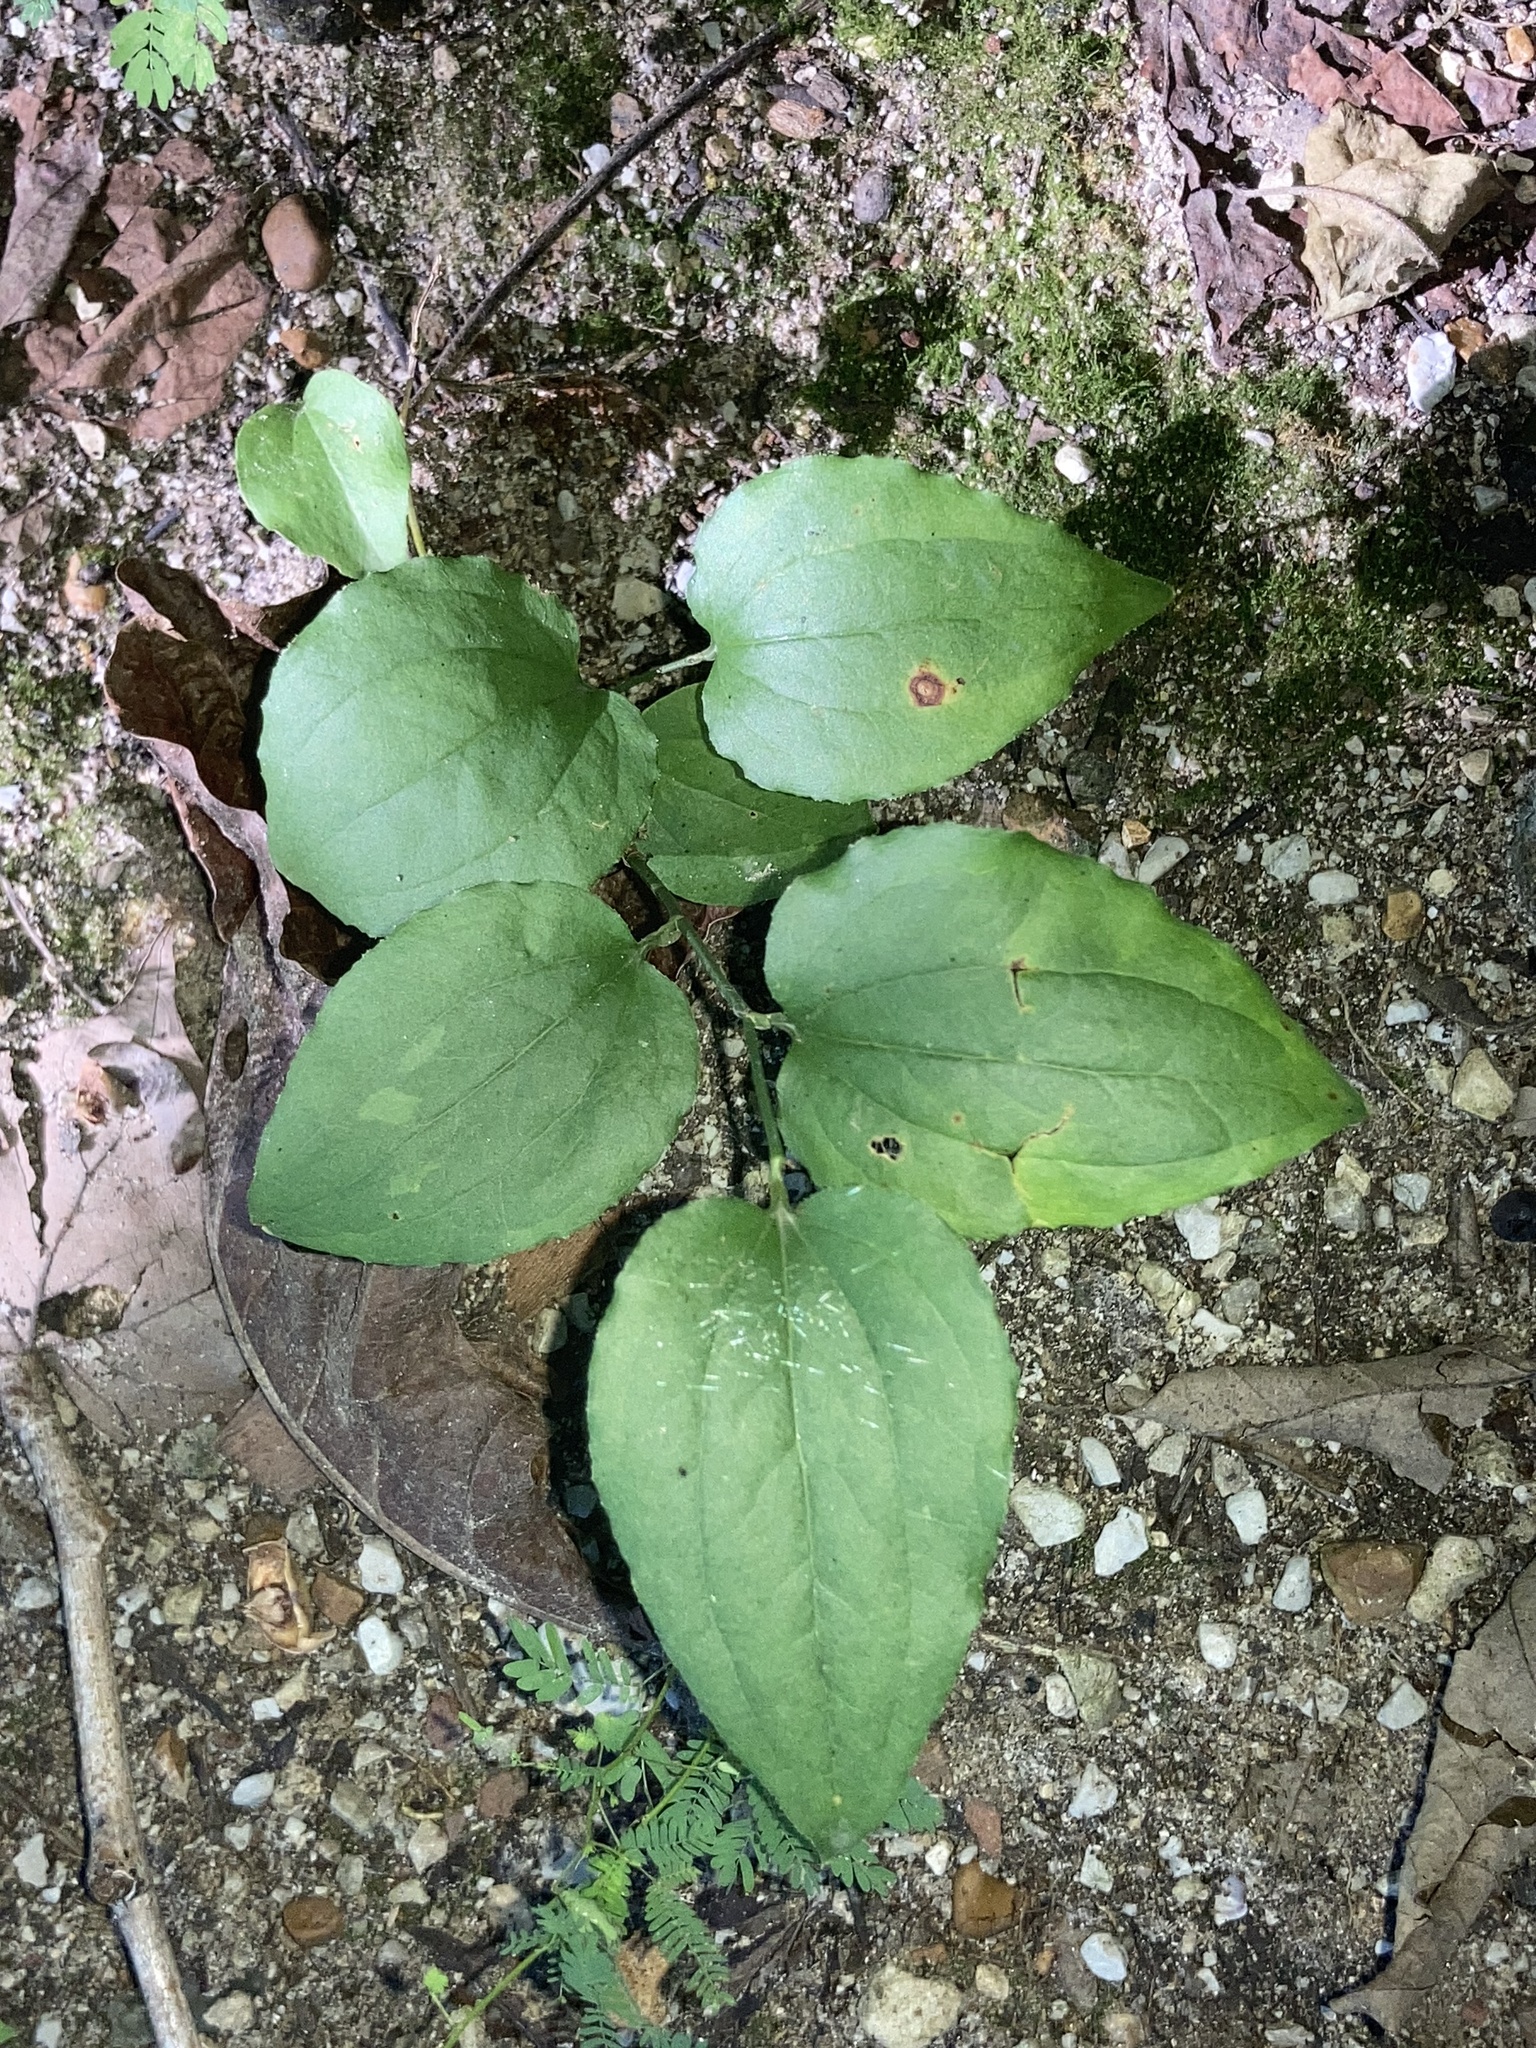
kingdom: Plantae
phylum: Tracheophyta
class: Liliopsida
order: Liliales
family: Smilacaceae
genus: Smilax
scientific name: Smilax tamnoides
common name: Hellfetter
